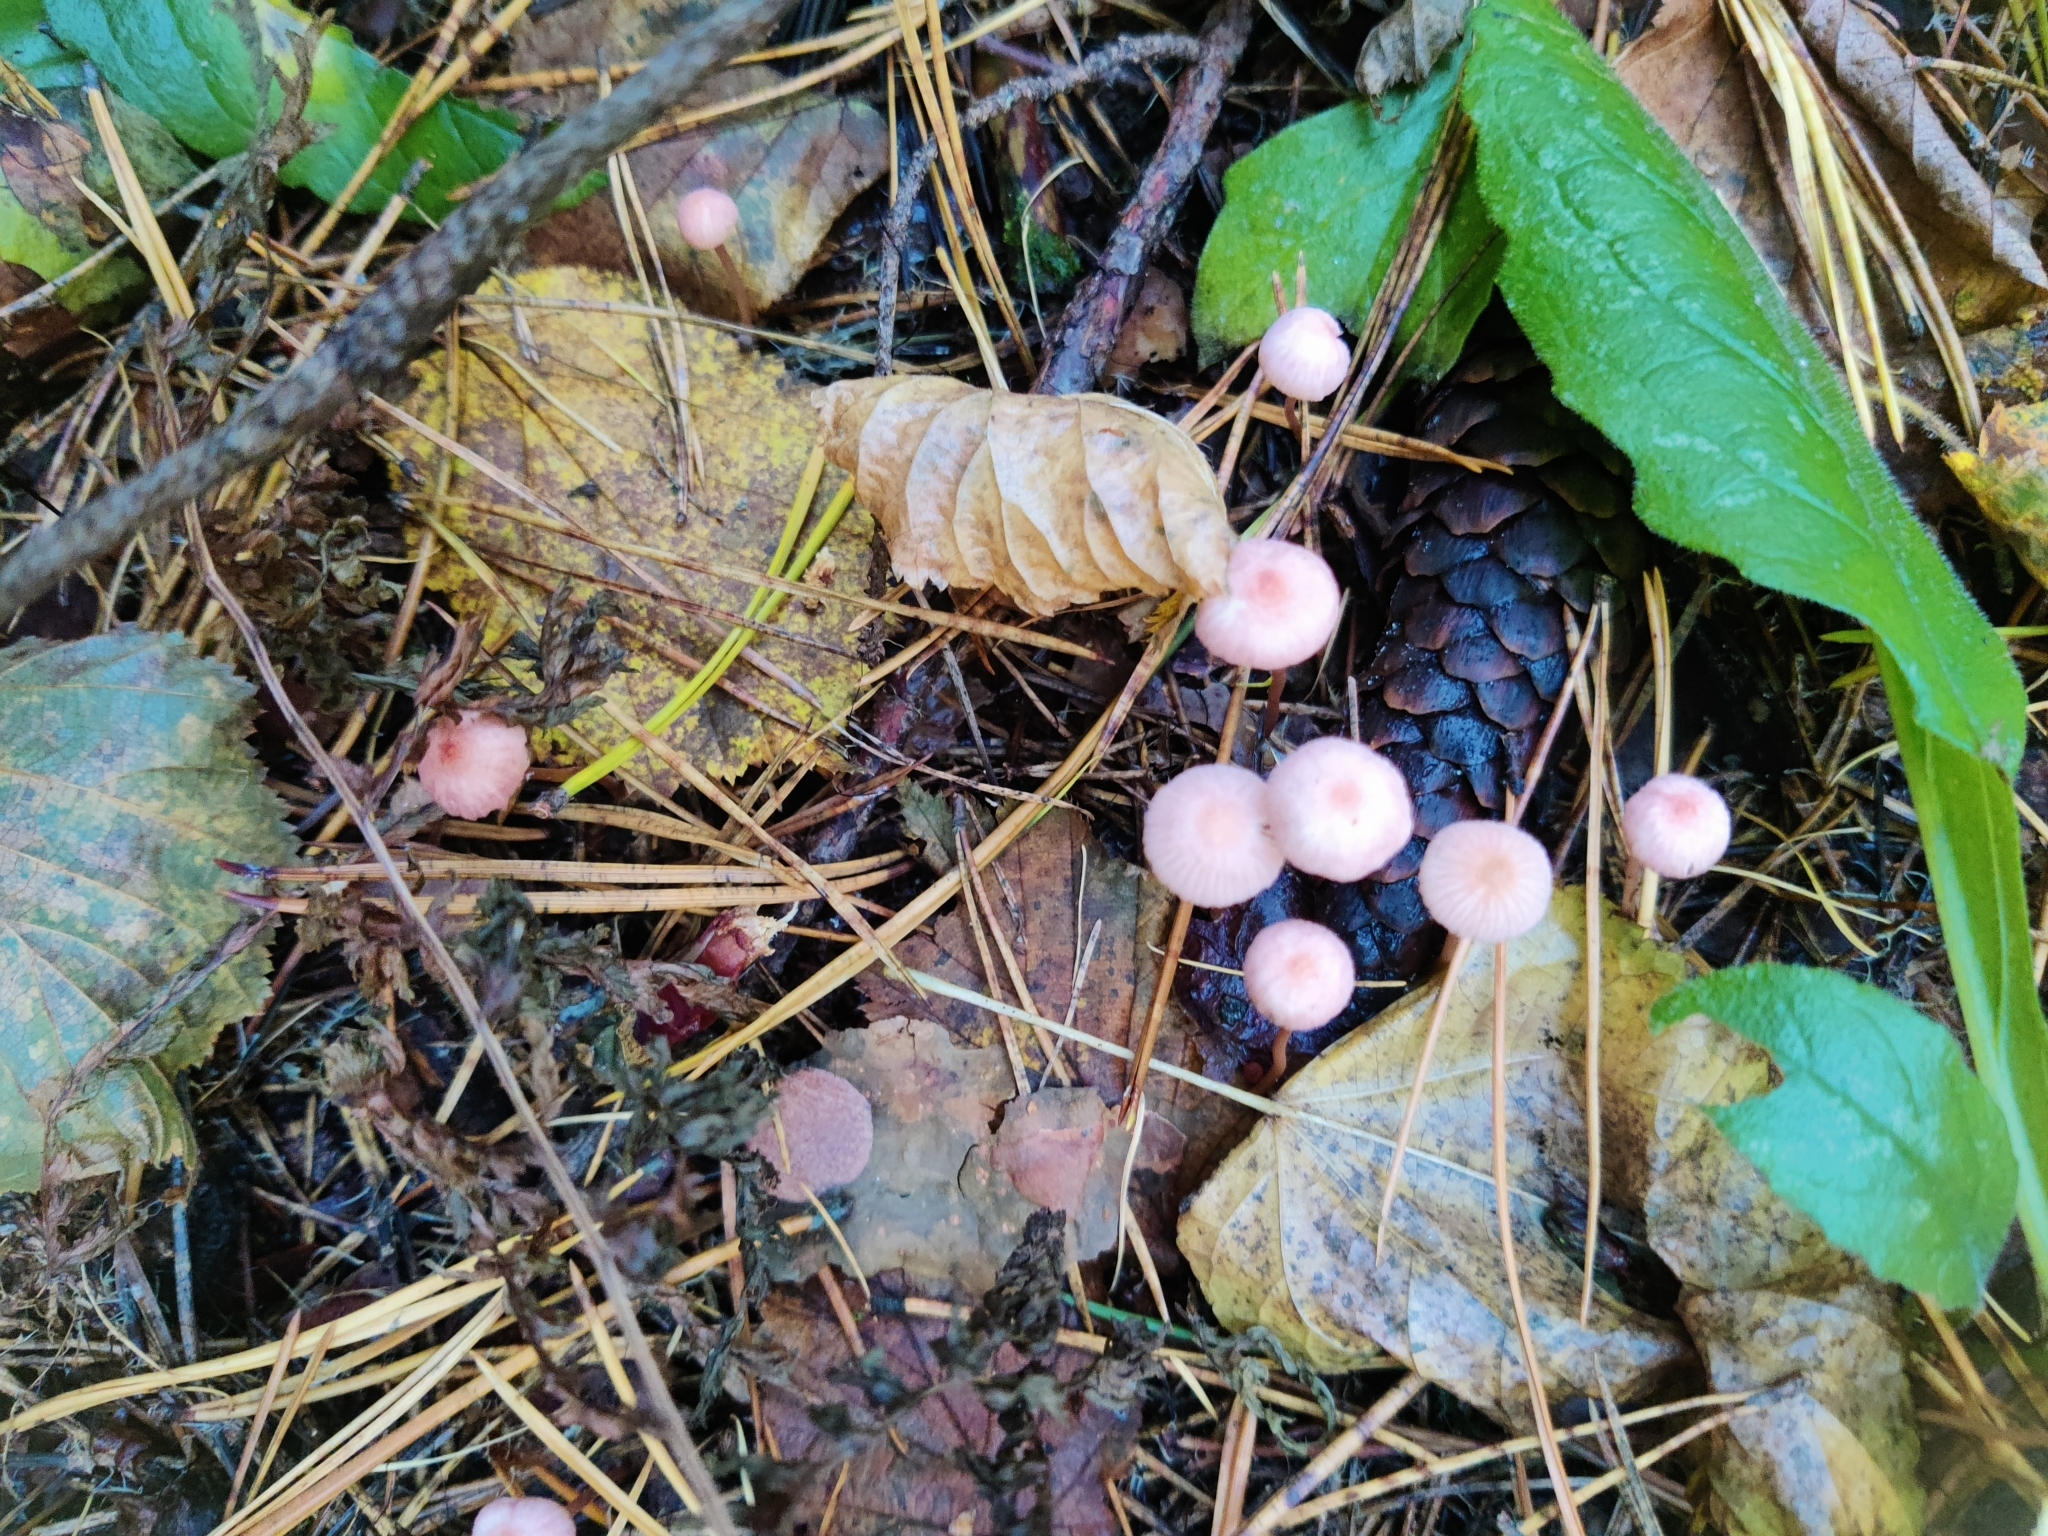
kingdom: Fungi
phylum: Basidiomycota
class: Agaricomycetes
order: Agaricales
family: Mycenaceae
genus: Mycena
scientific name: Mycena rosella
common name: Pink bonnet
